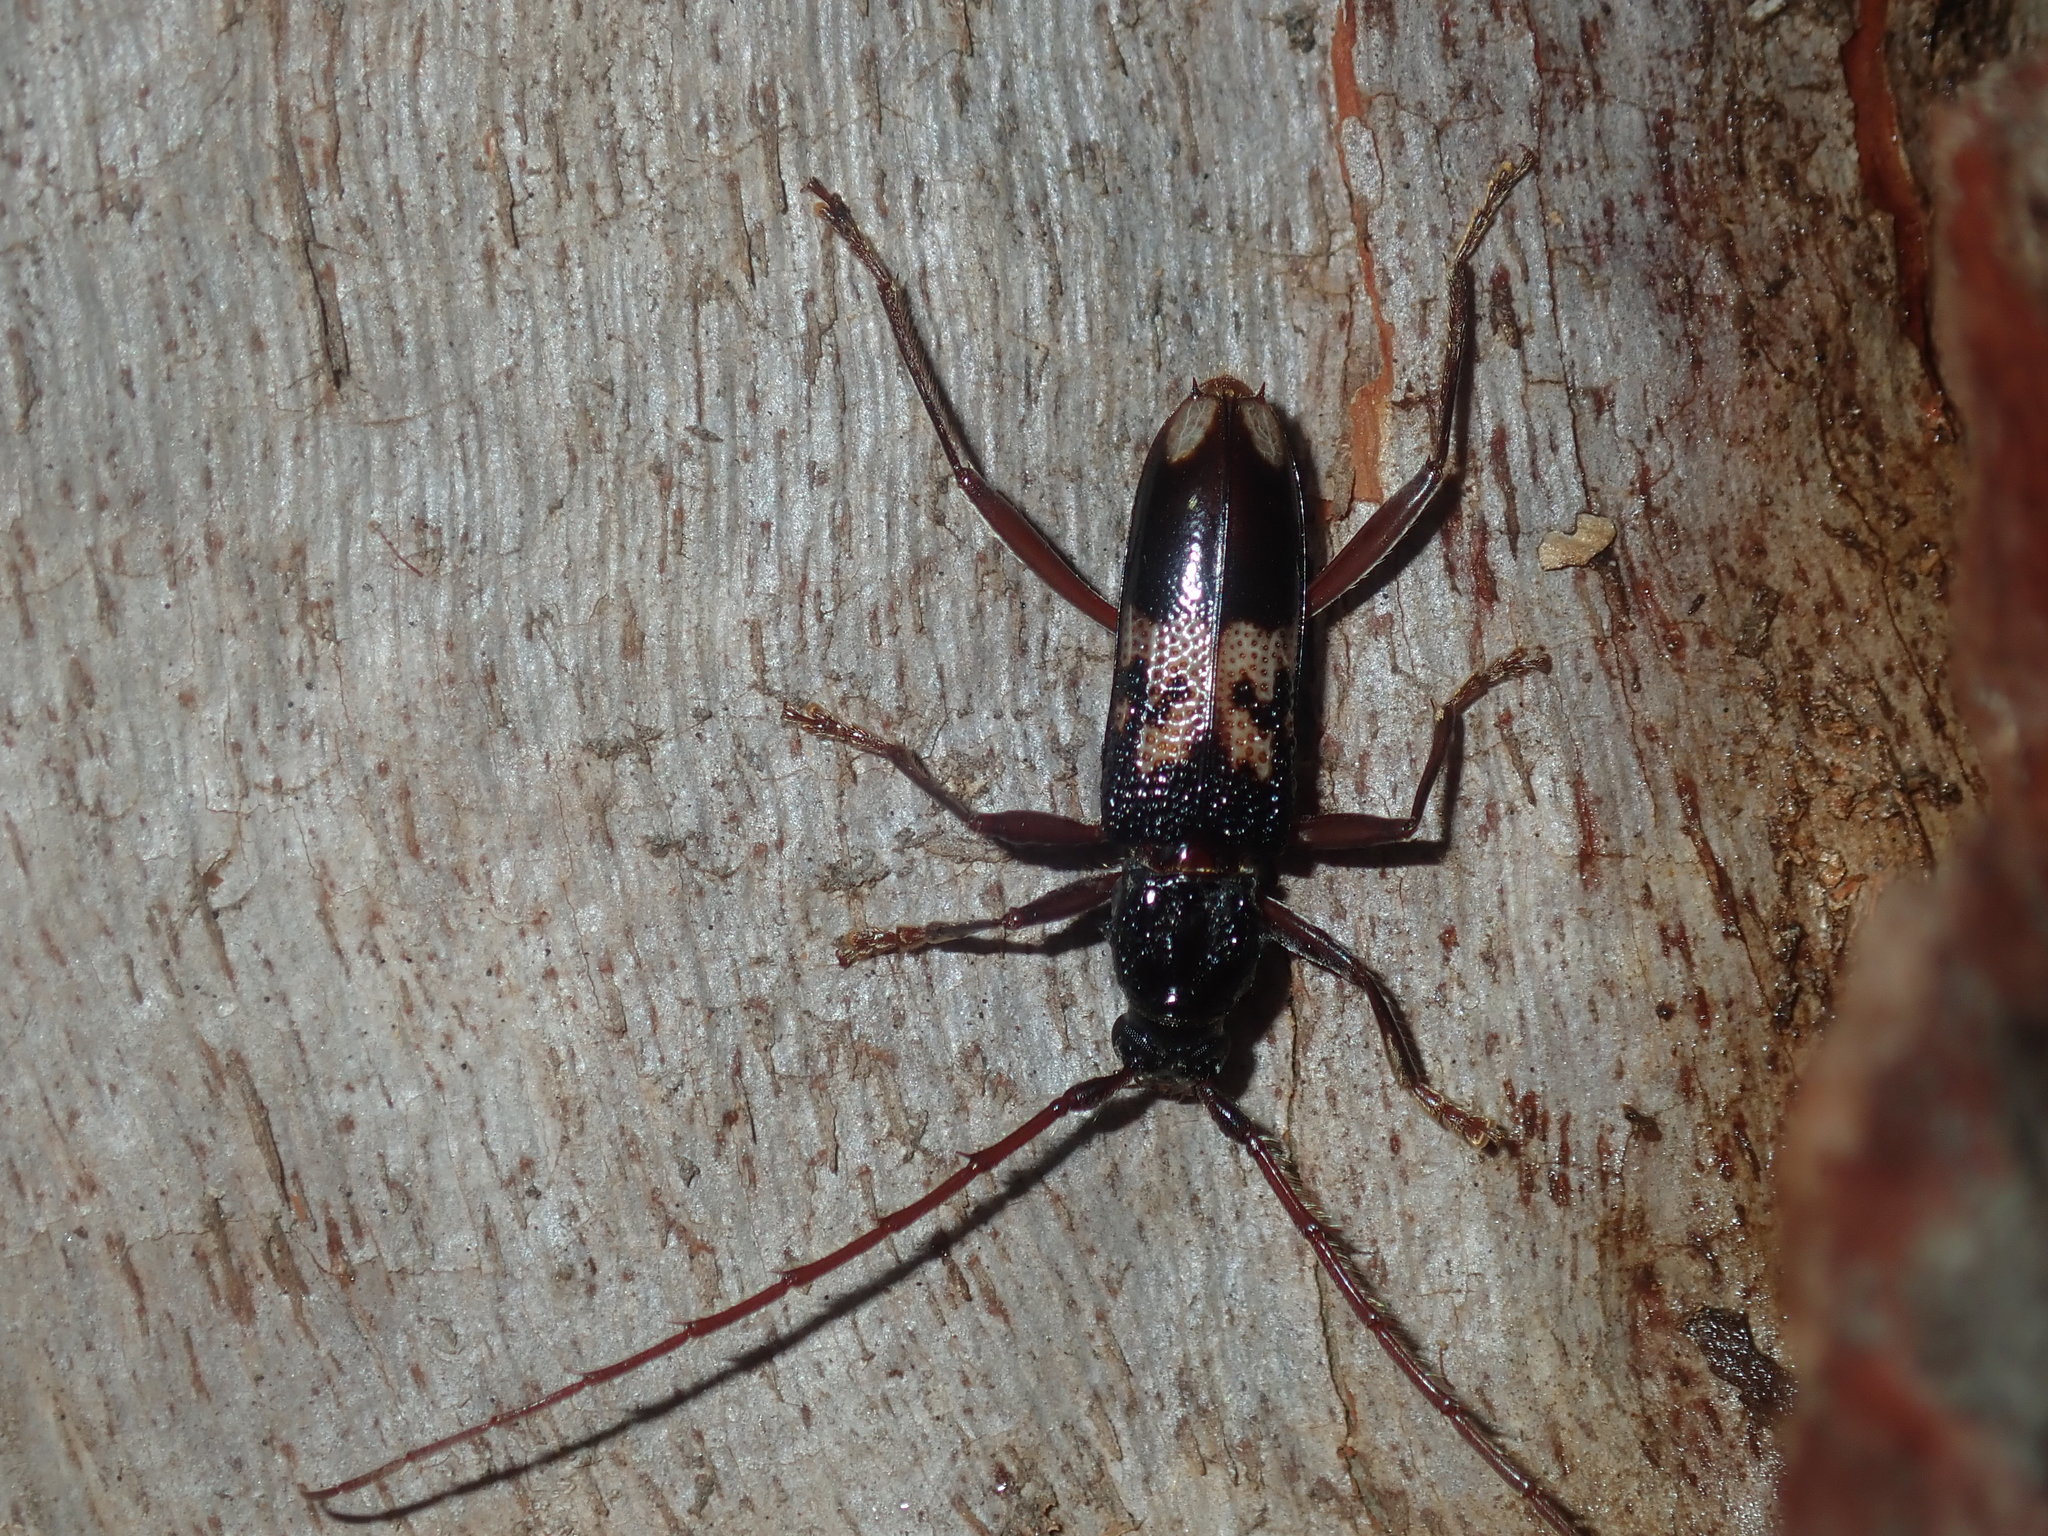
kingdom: Animalia
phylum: Arthropoda
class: Insecta
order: Coleoptera
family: Cerambycidae
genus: Phoracantha
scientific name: Phoracantha semipunctata
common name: Eucalyptus longhorn borer
